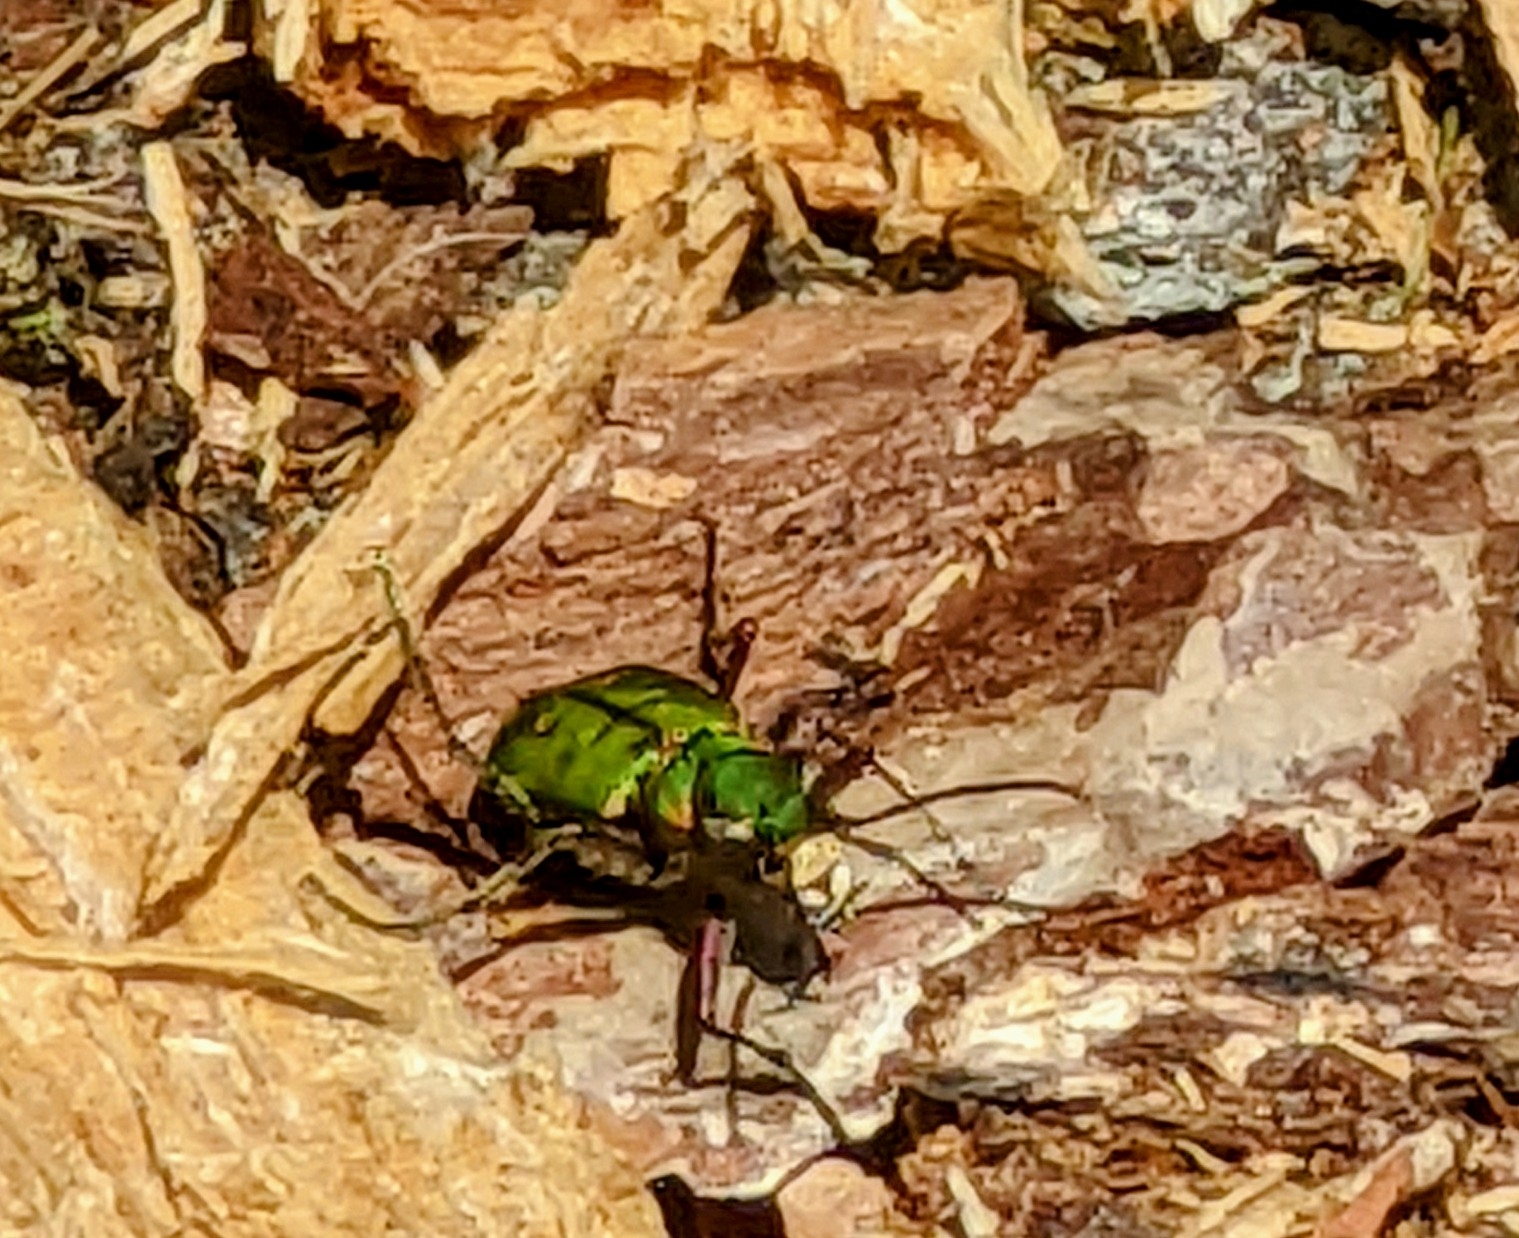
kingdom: Animalia
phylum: Arthropoda
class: Insecta
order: Coleoptera
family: Carabidae
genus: Cicindela
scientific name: Cicindela campestris
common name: Common tiger beetle
